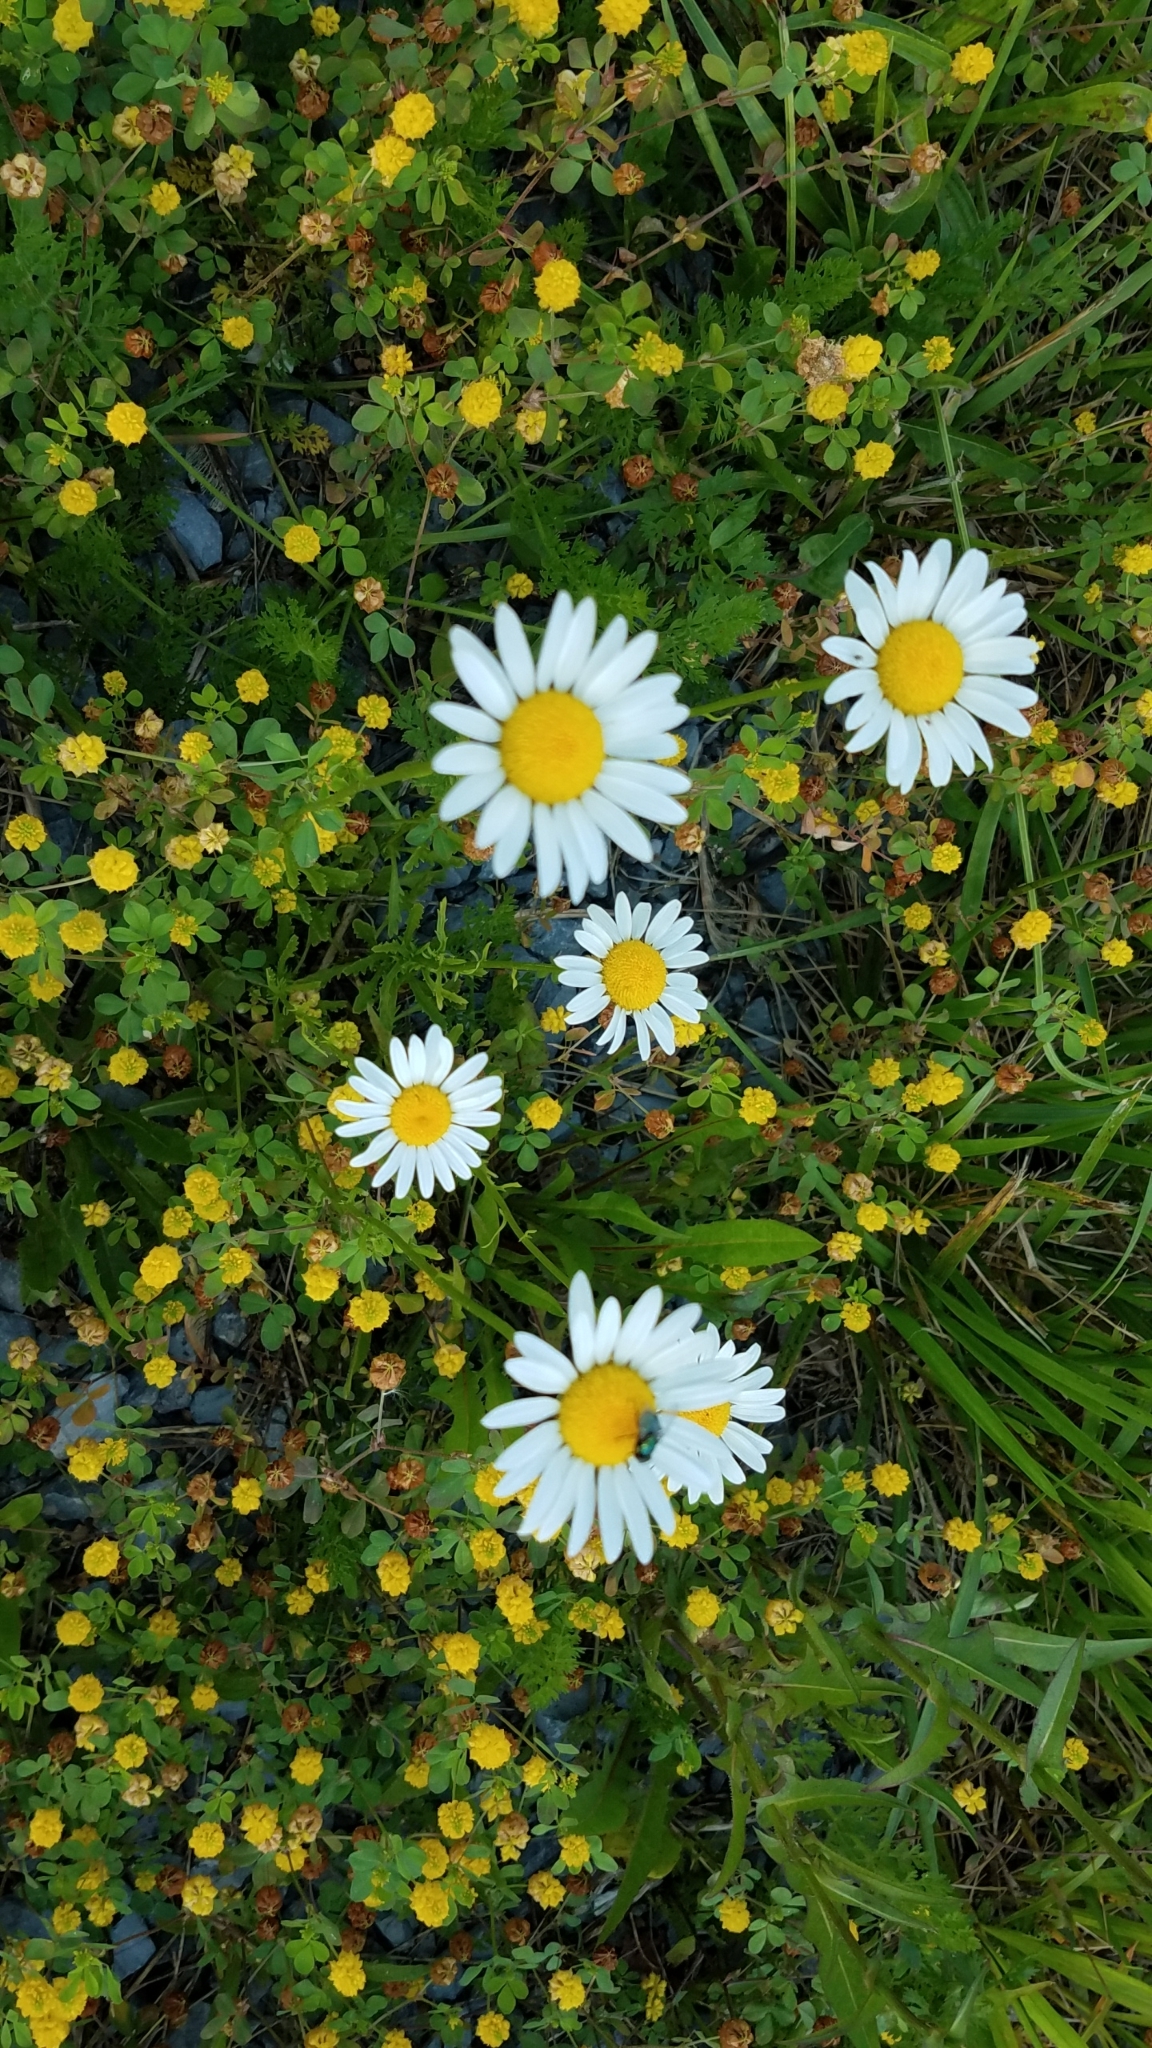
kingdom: Plantae
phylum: Tracheophyta
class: Magnoliopsida
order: Asterales
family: Asteraceae
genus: Leucanthemum
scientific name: Leucanthemum vulgare
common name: Oxeye daisy
